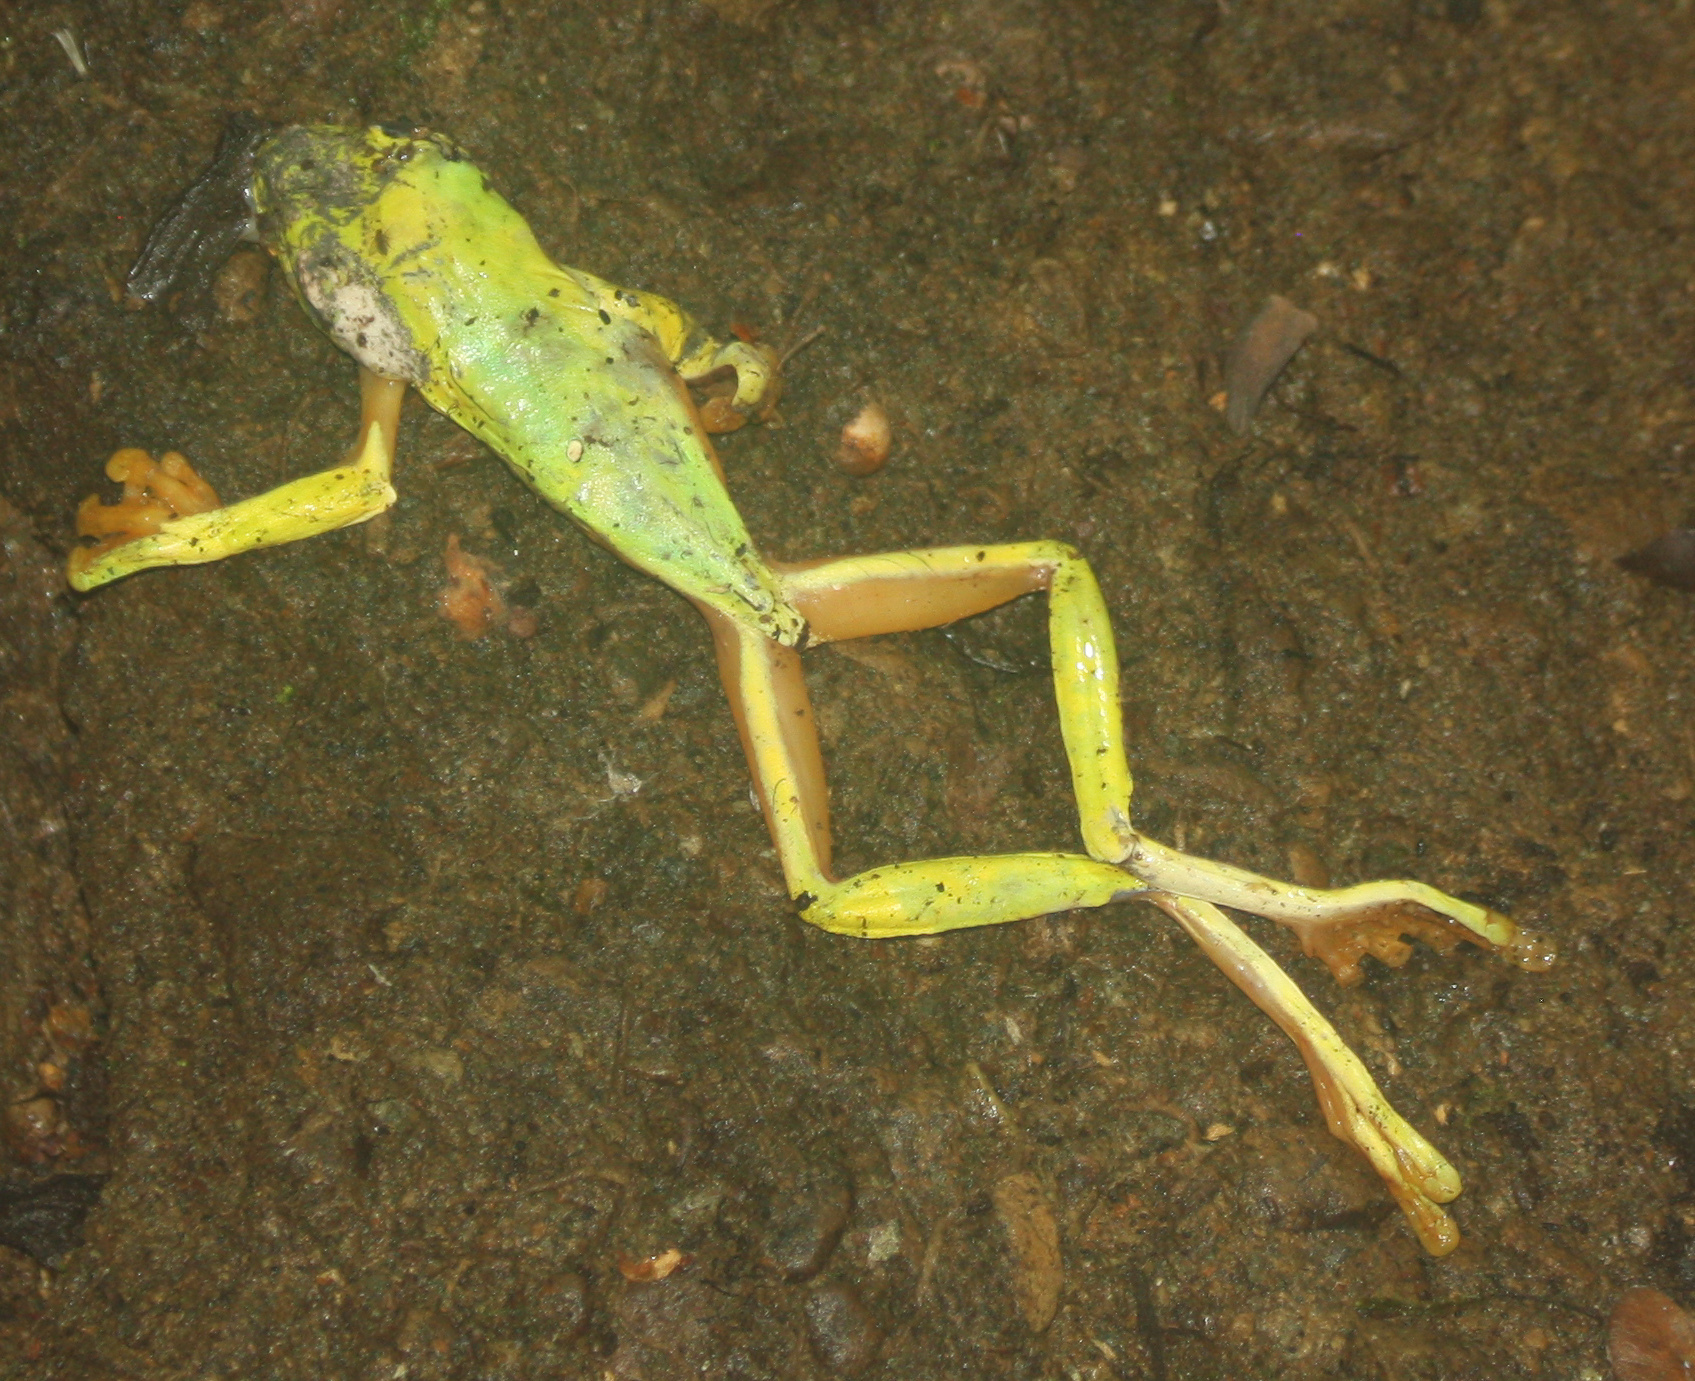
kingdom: Animalia
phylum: Chordata
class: Amphibia
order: Anura
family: Phyllomedusidae
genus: Agalychnis
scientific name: Agalychnis spurrelli
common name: Gliding leaf frog
